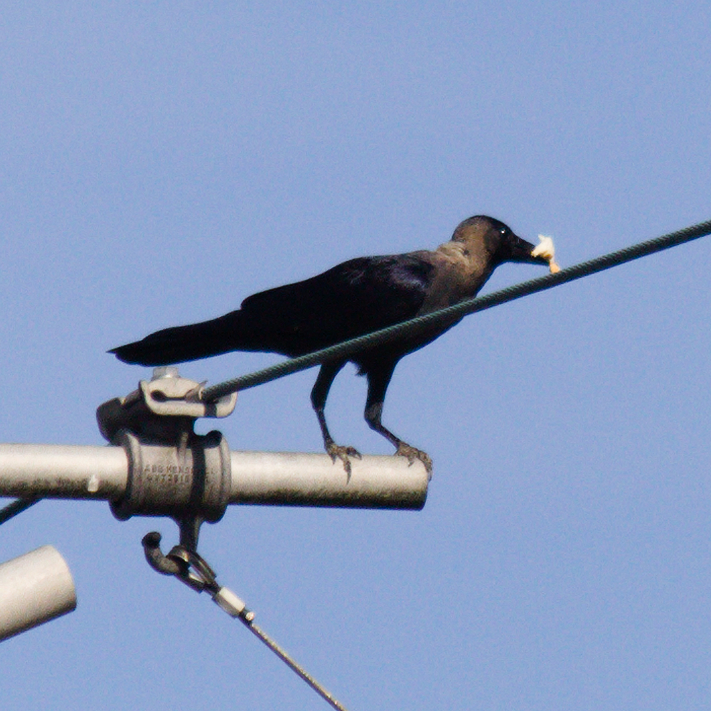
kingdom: Animalia
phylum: Chordata
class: Aves
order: Passeriformes
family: Corvidae
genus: Corvus
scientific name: Corvus splendens
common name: House crow
